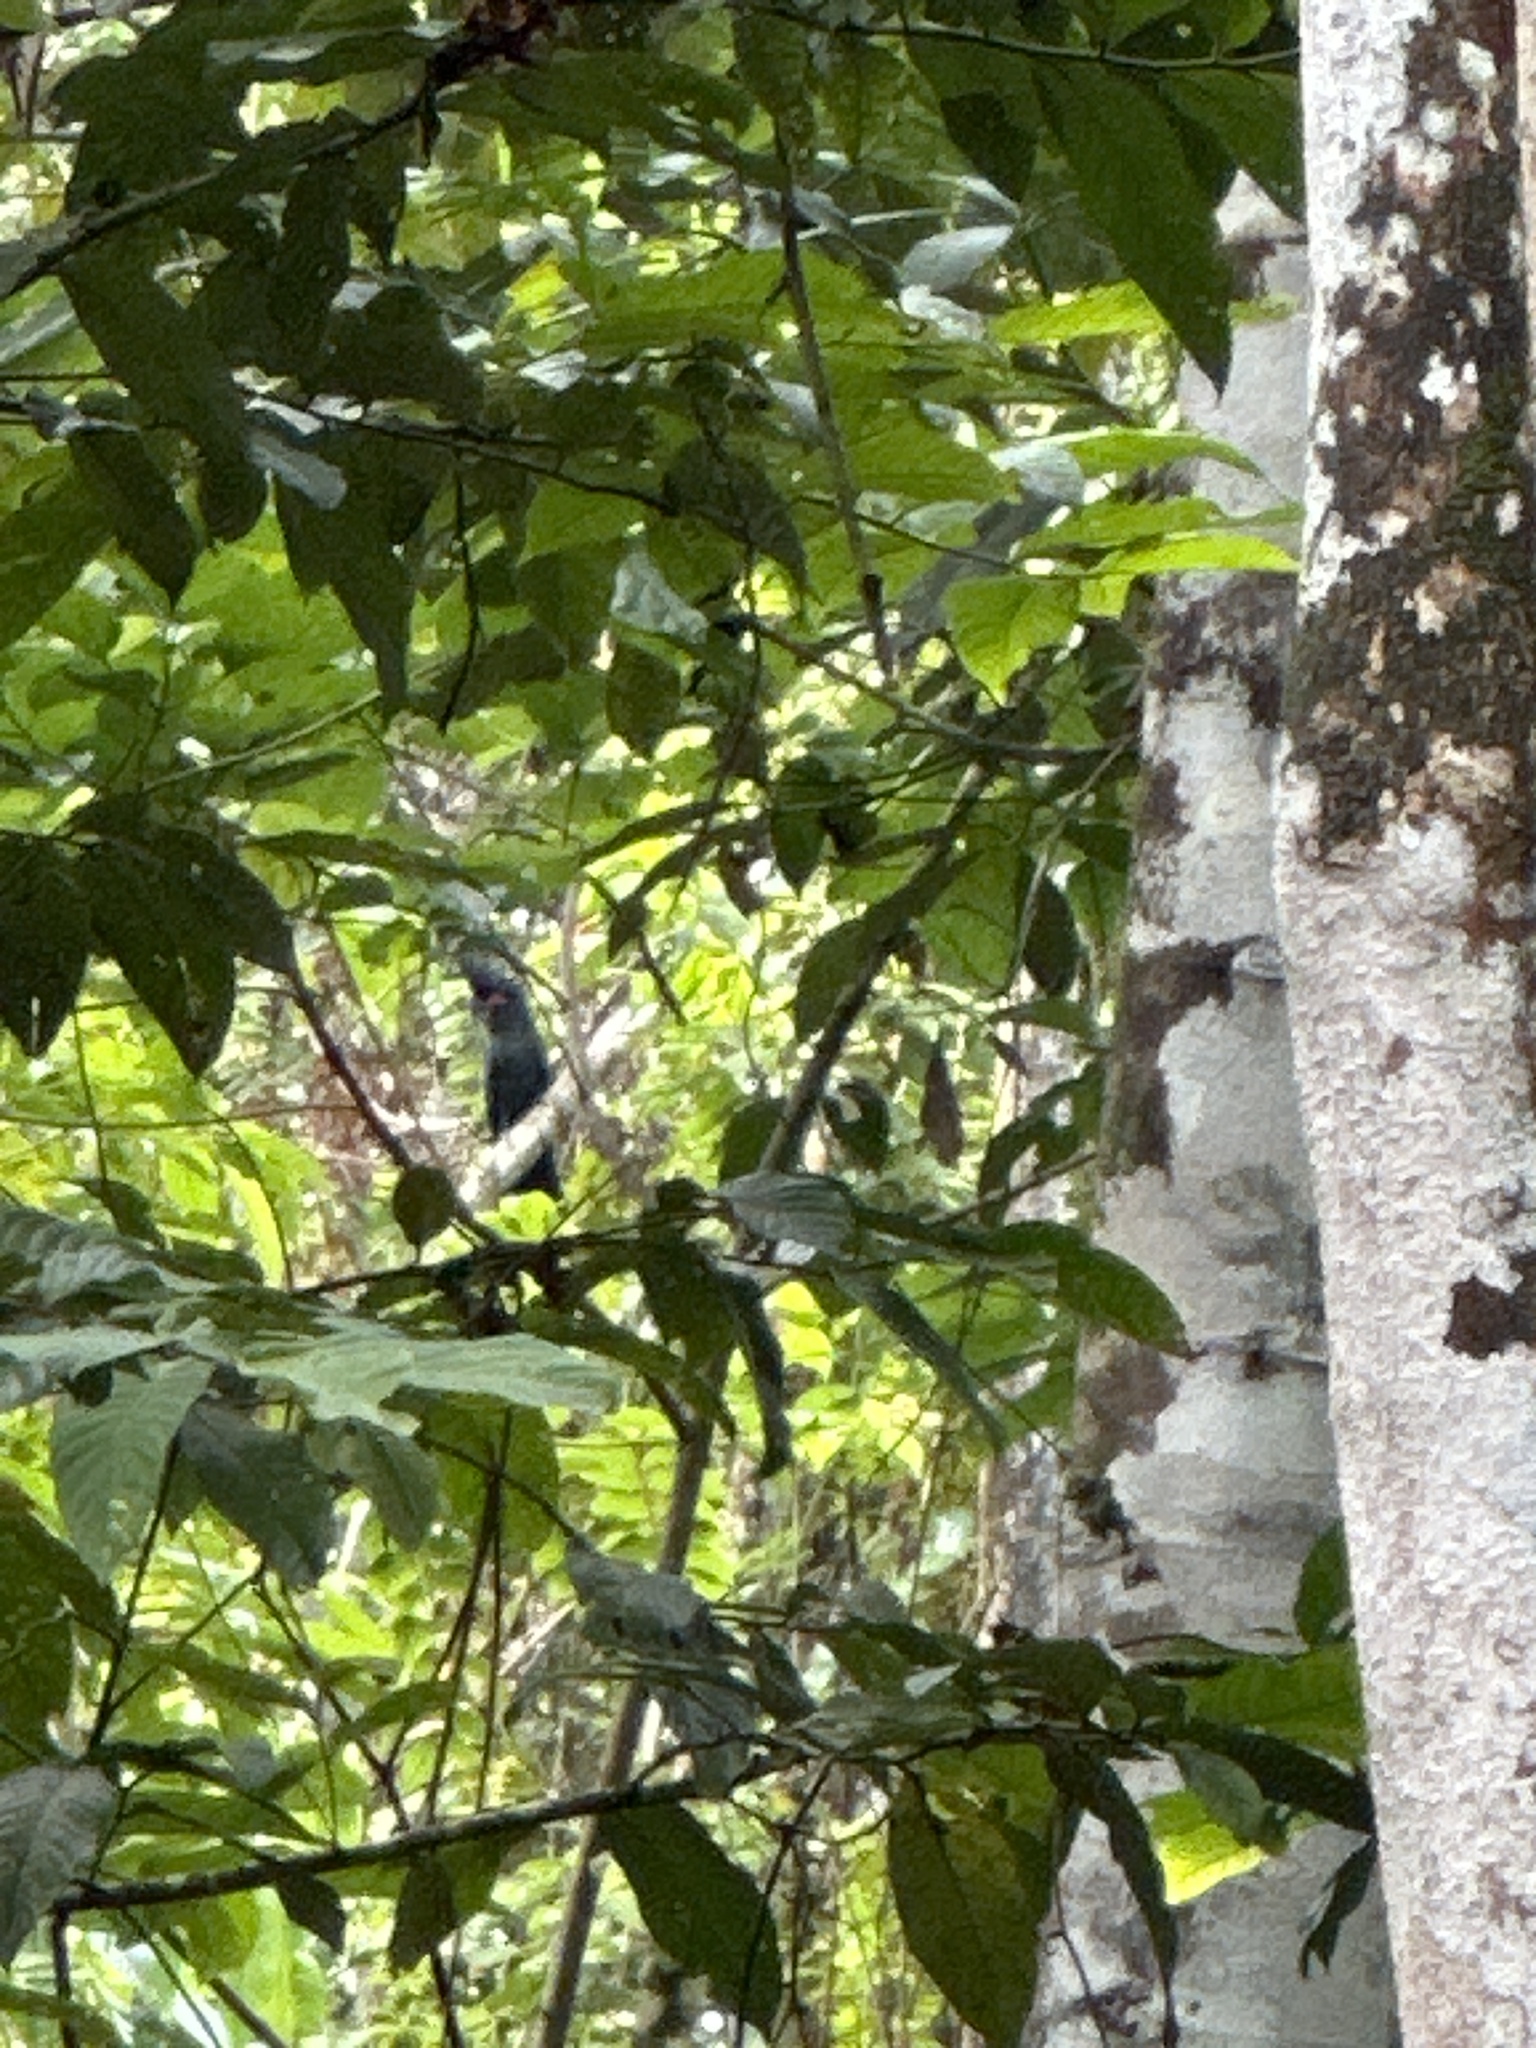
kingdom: Animalia
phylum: Chordata
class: Aves
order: Psittaciformes
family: Psittacidae
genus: Probosciger
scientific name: Probosciger aterrimus
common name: Palm cockatoo
